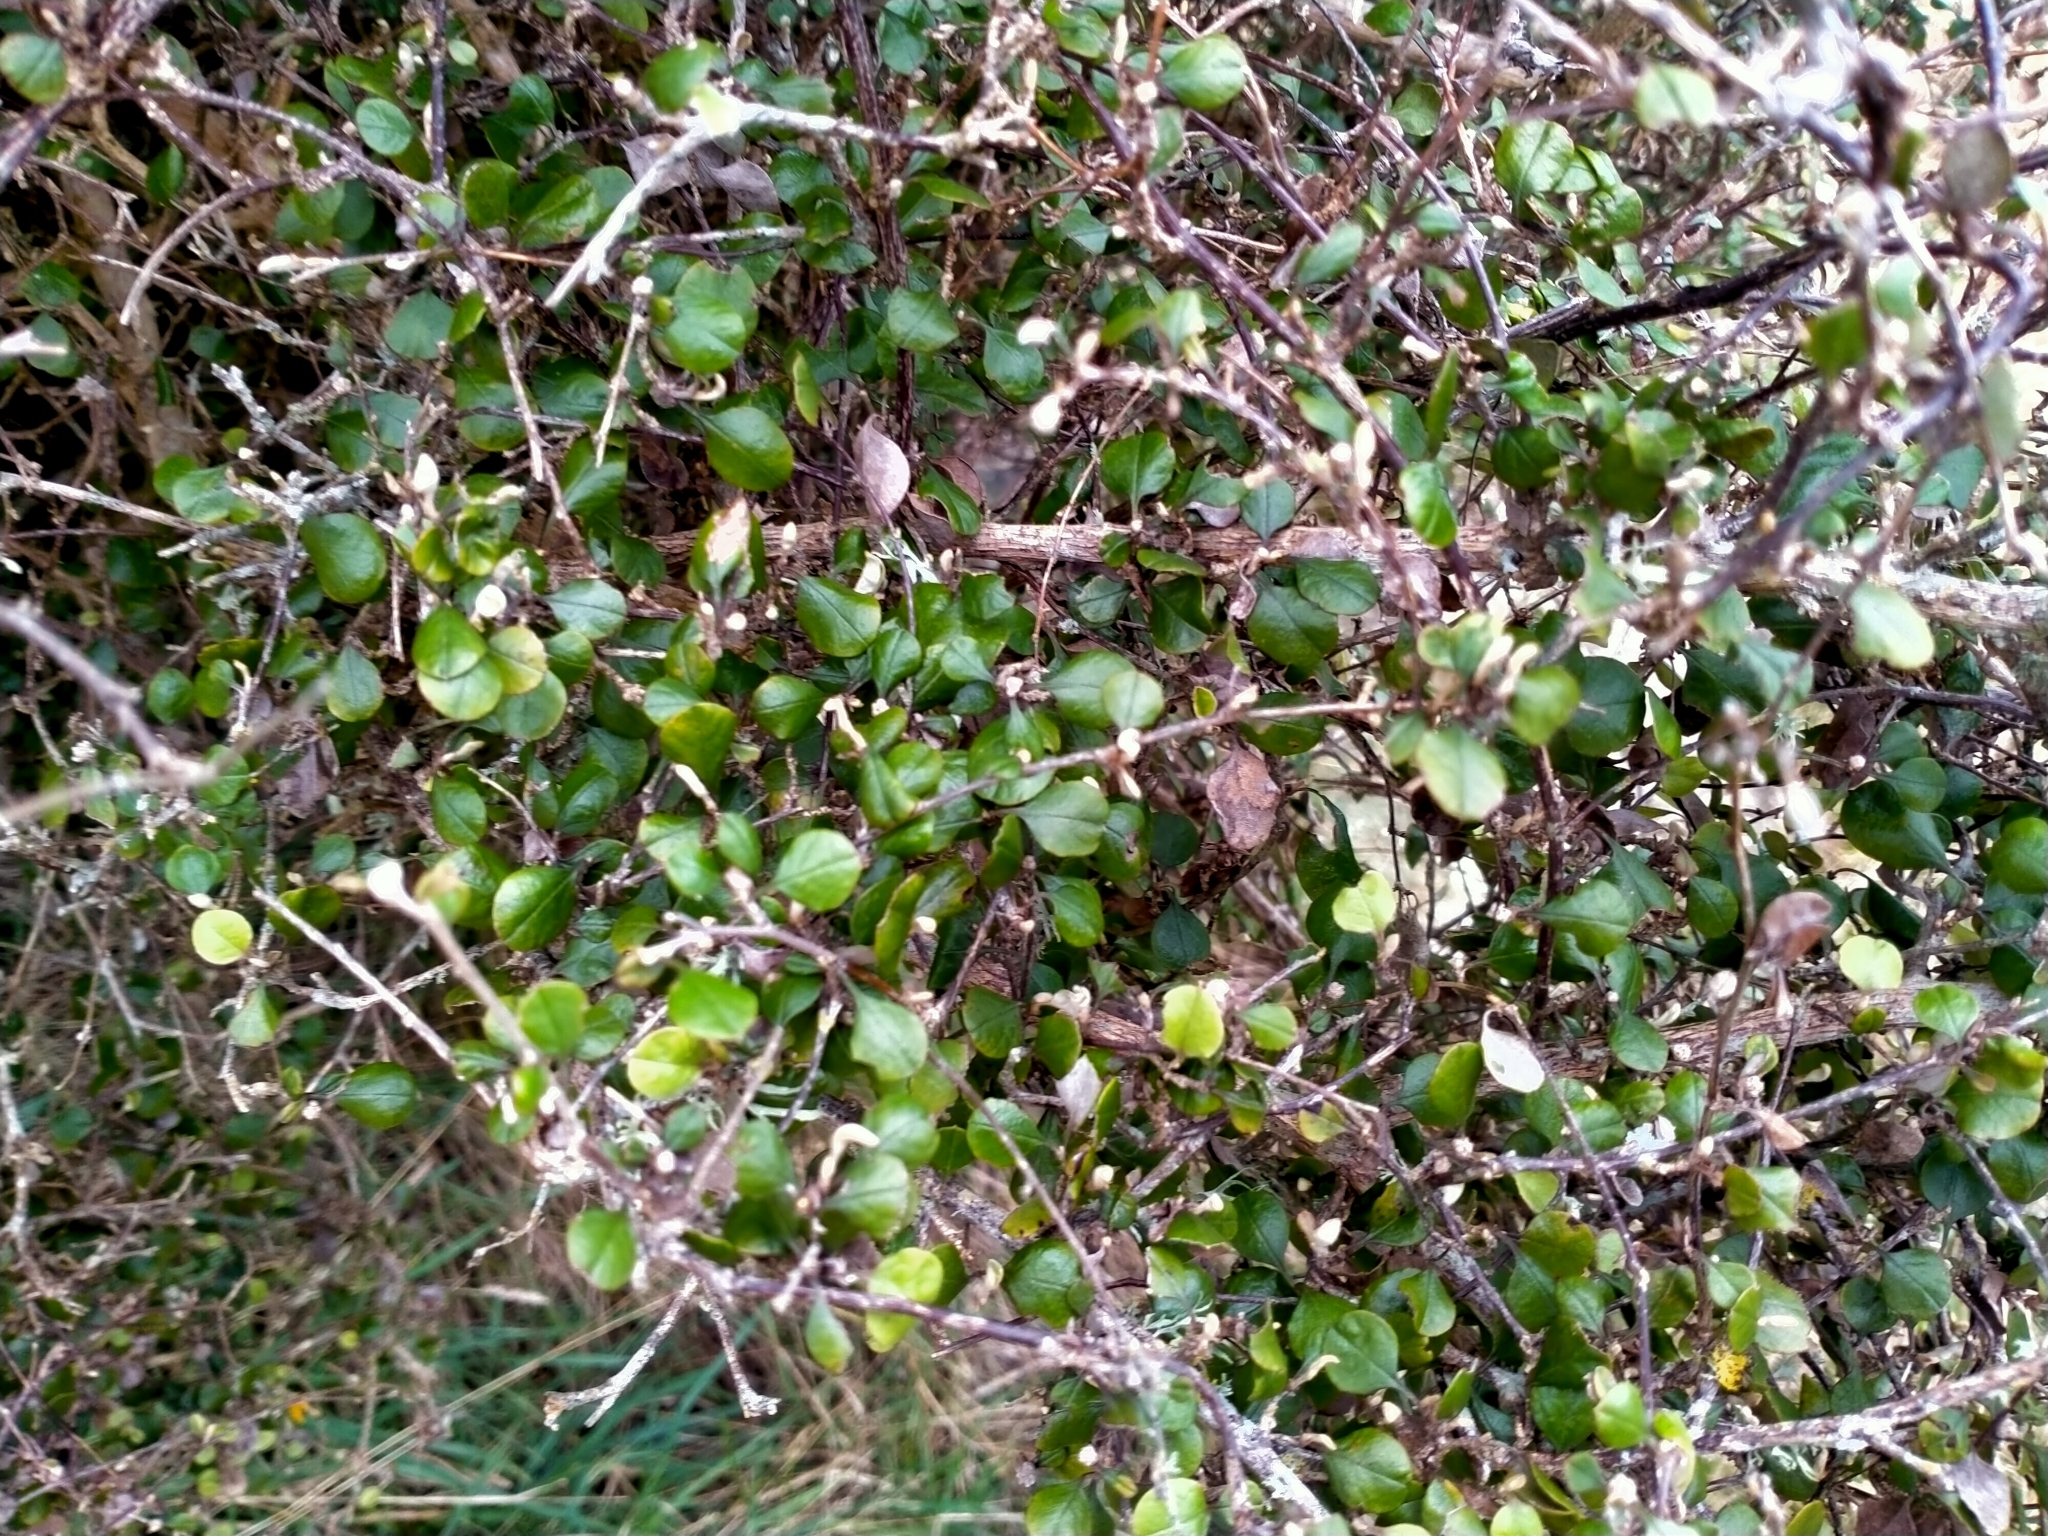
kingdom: Plantae
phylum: Tracheophyta
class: Magnoliopsida
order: Asterales
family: Asteraceae
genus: Ozothamnus
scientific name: Ozothamnus glomeratus
